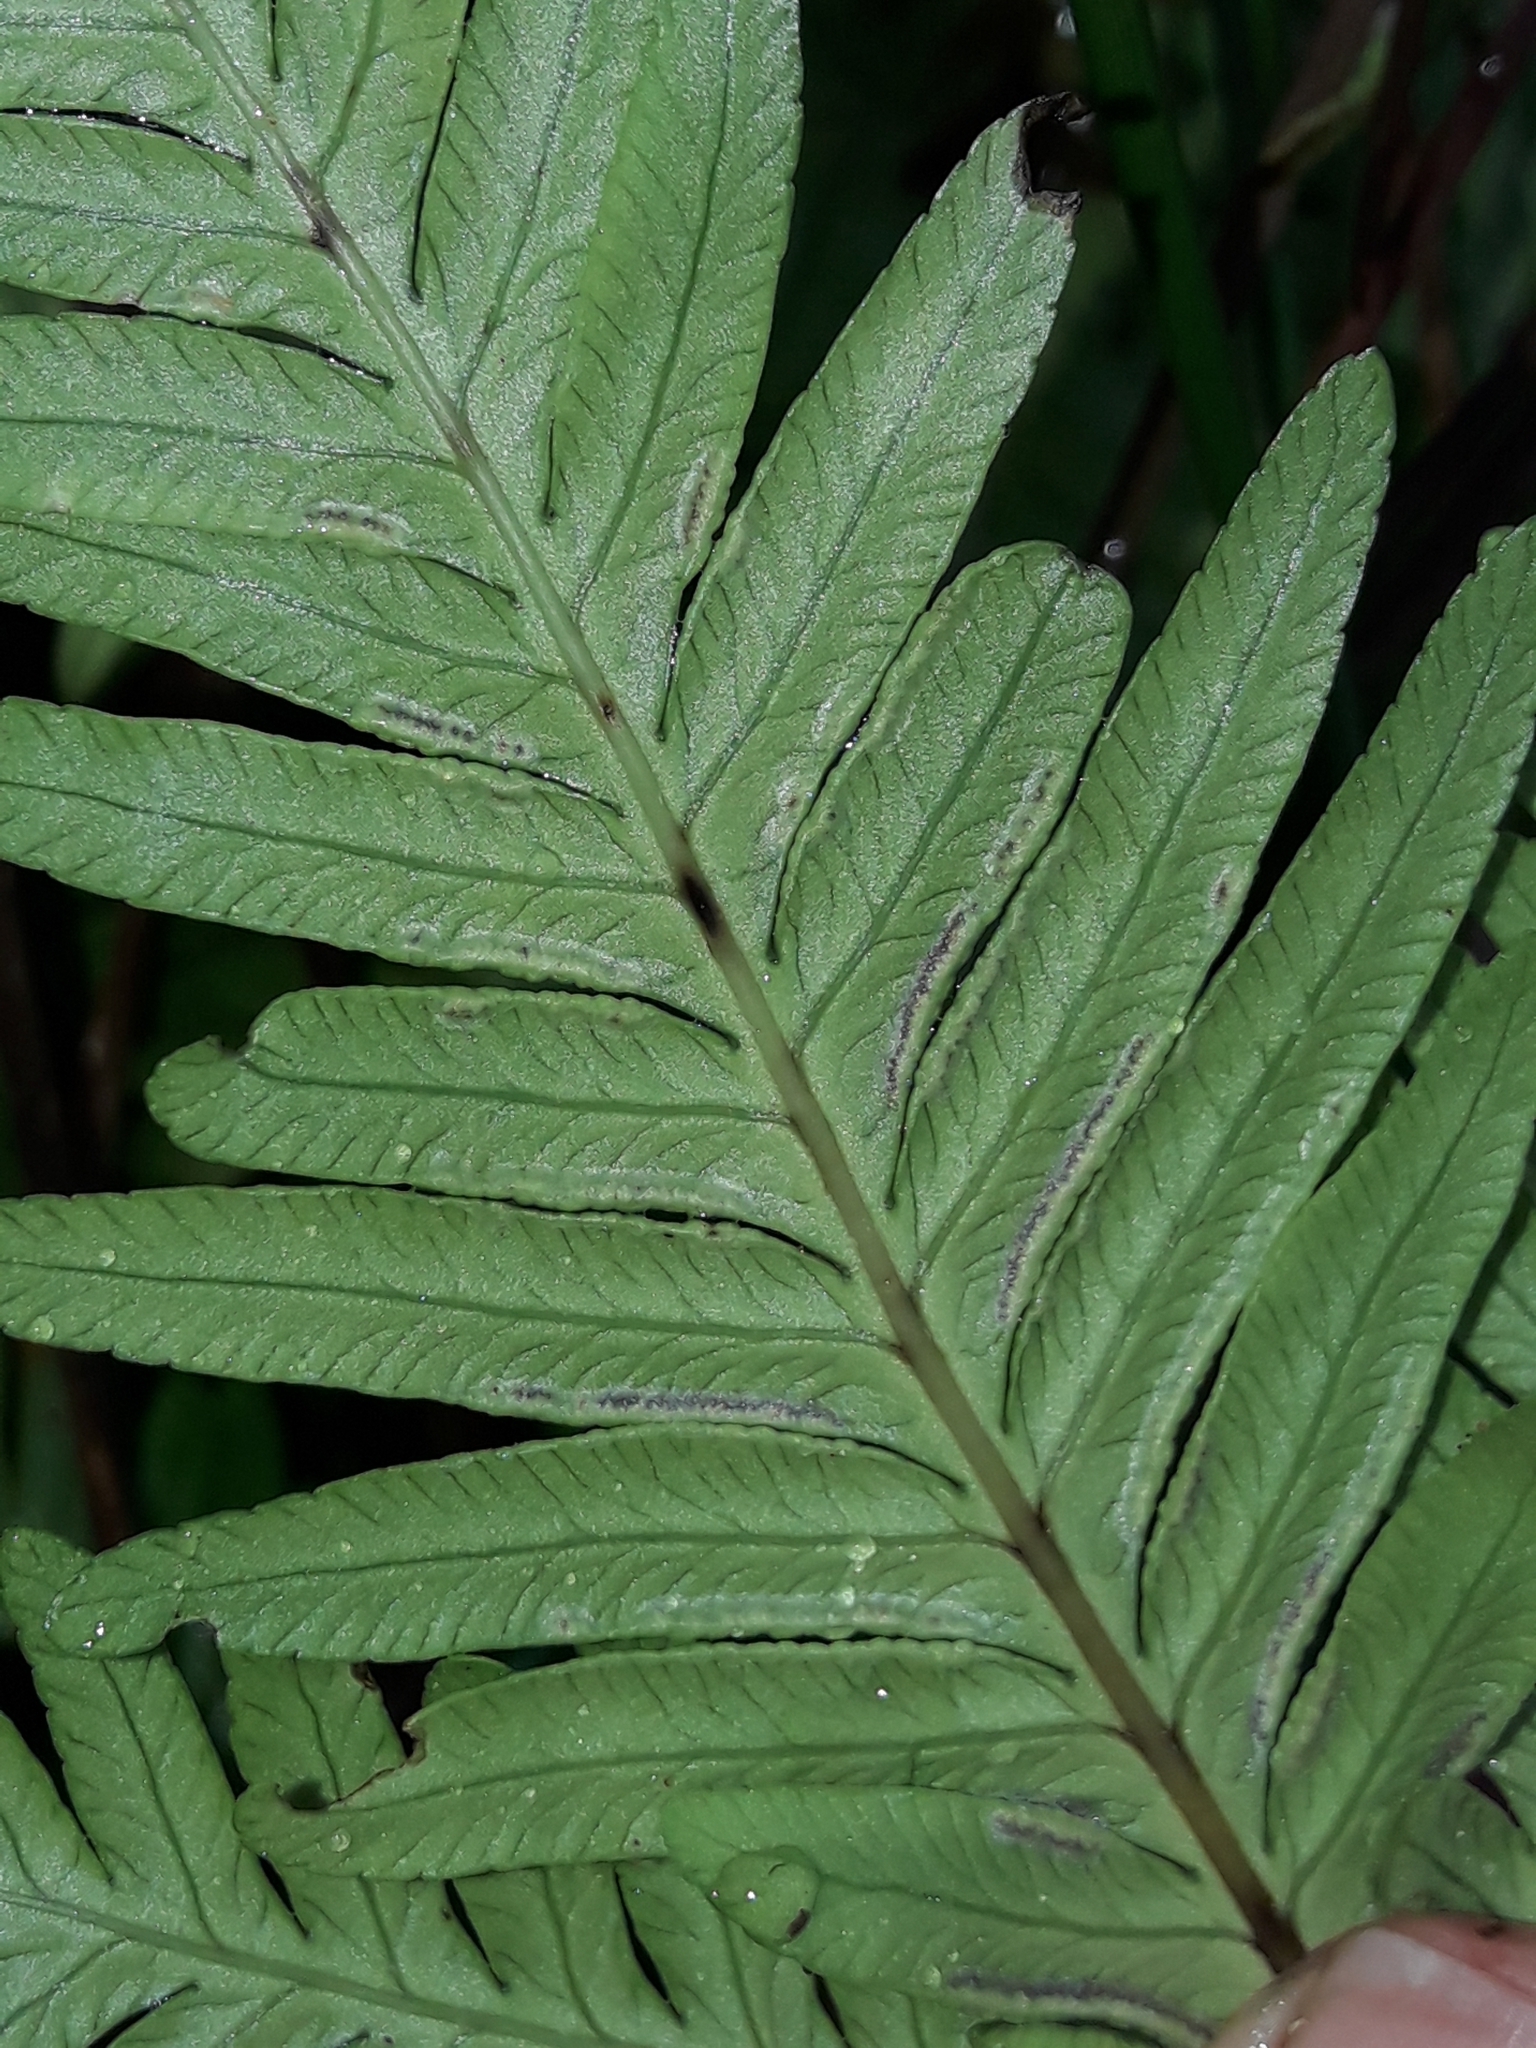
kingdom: Plantae
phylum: Tracheophyta
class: Polypodiopsida
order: Polypodiales
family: Pteridaceae
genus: Pteris
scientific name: Pteris kingiana
